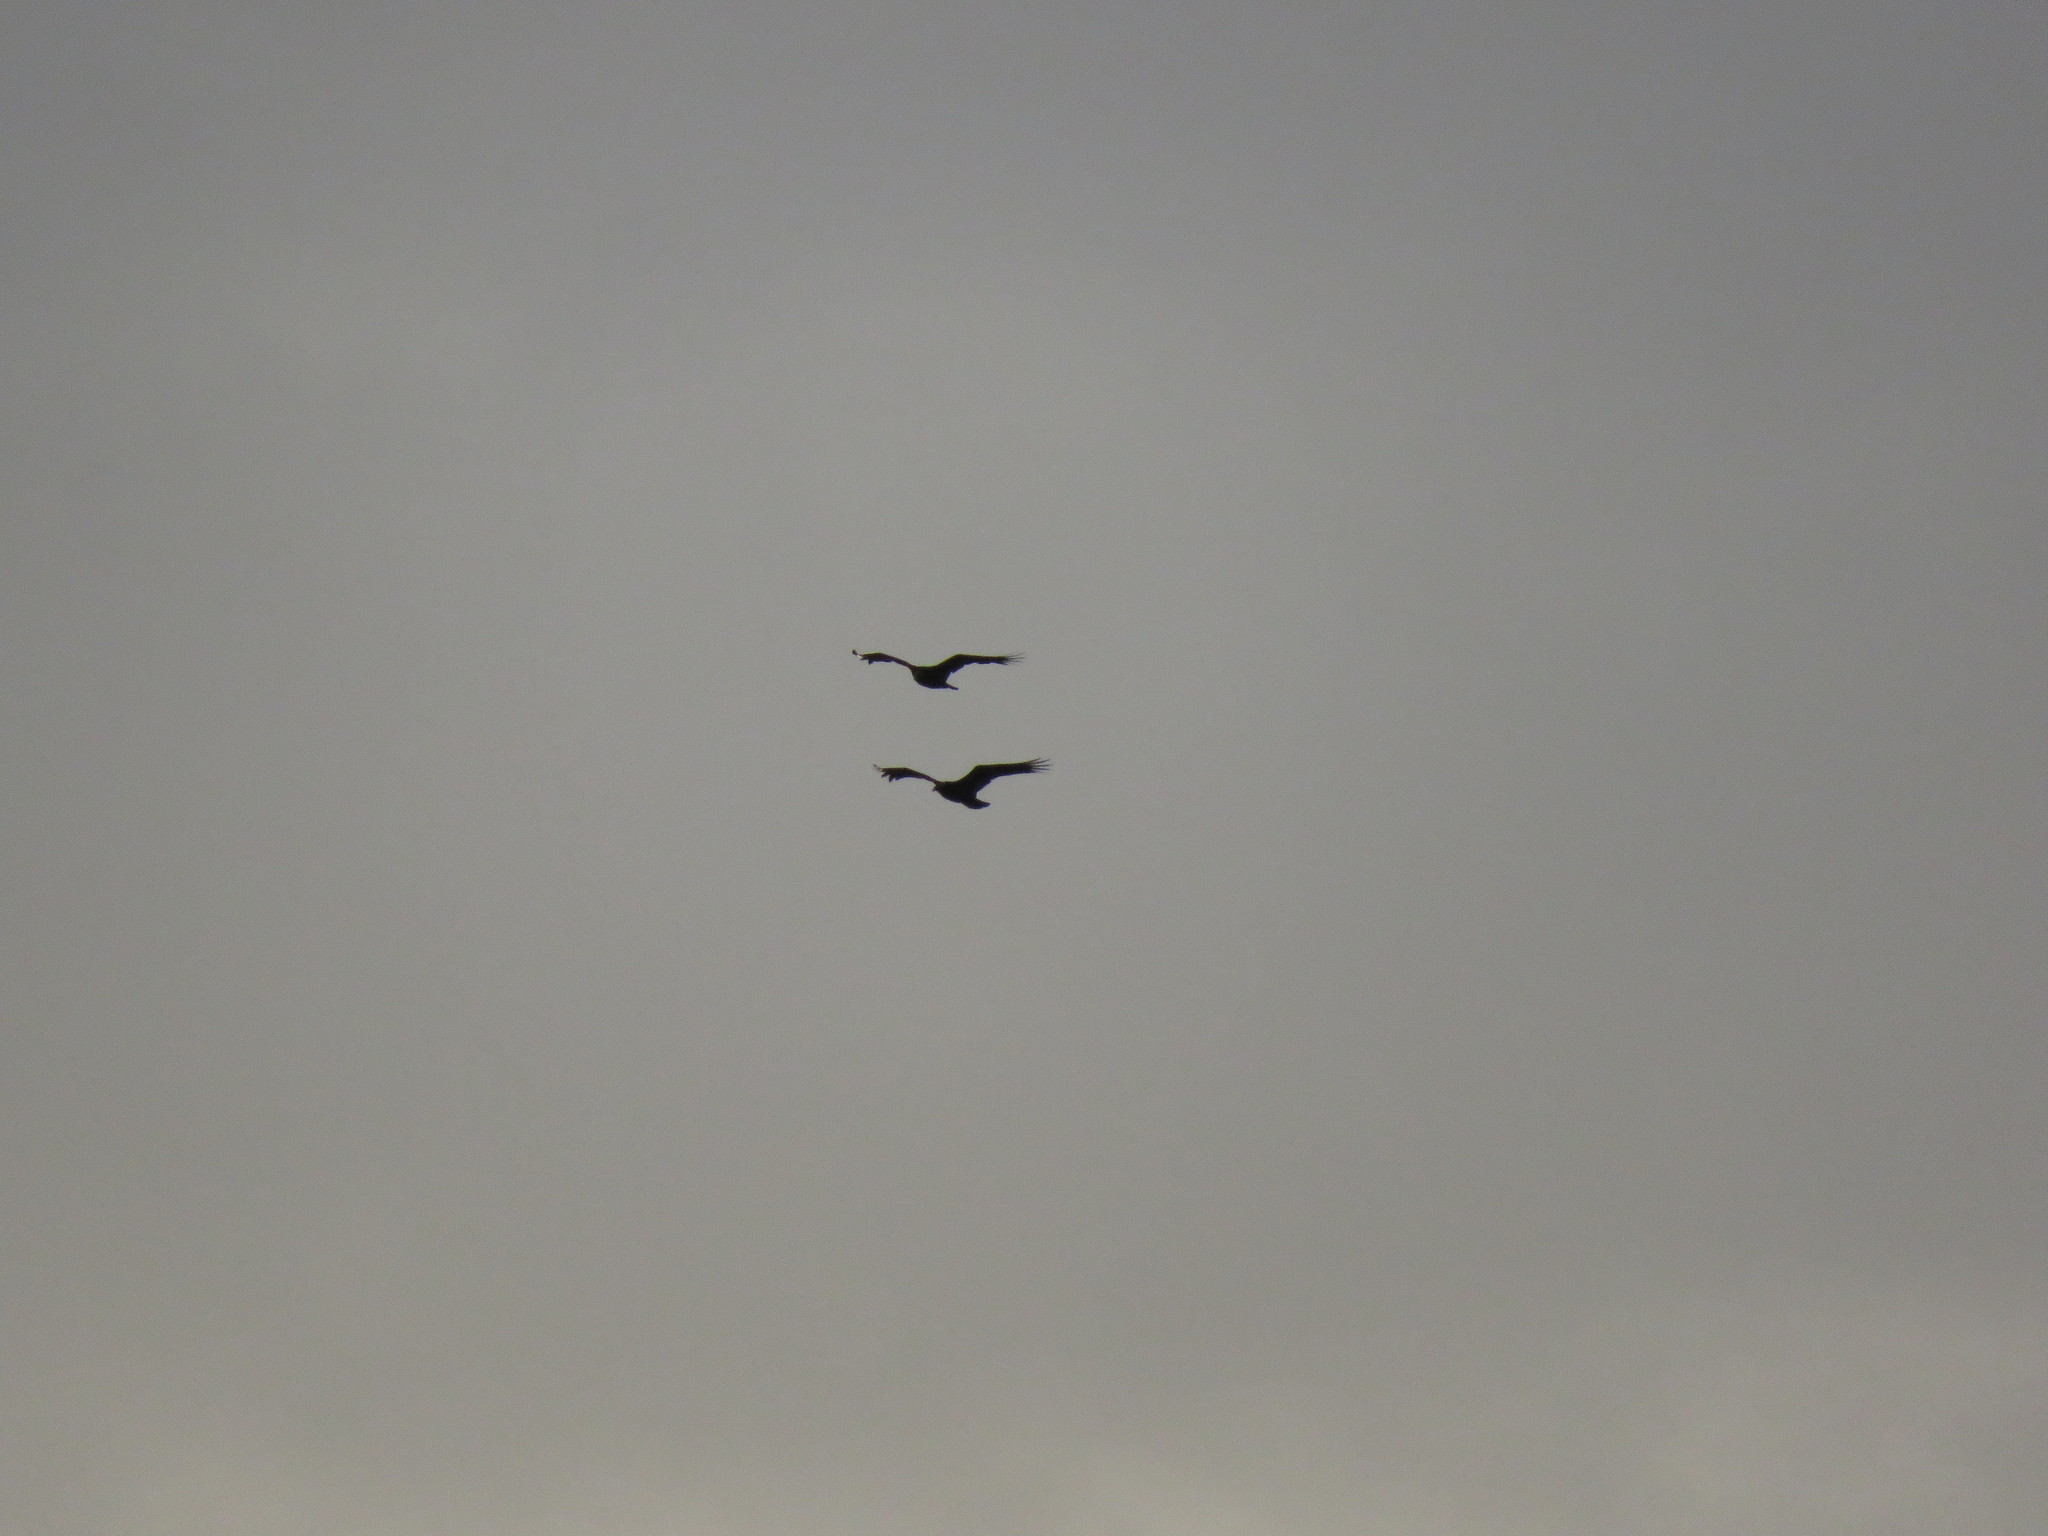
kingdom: Animalia
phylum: Chordata
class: Aves
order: Accipitriformes
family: Cathartidae
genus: Coragyps
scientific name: Coragyps atratus
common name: Black vulture
